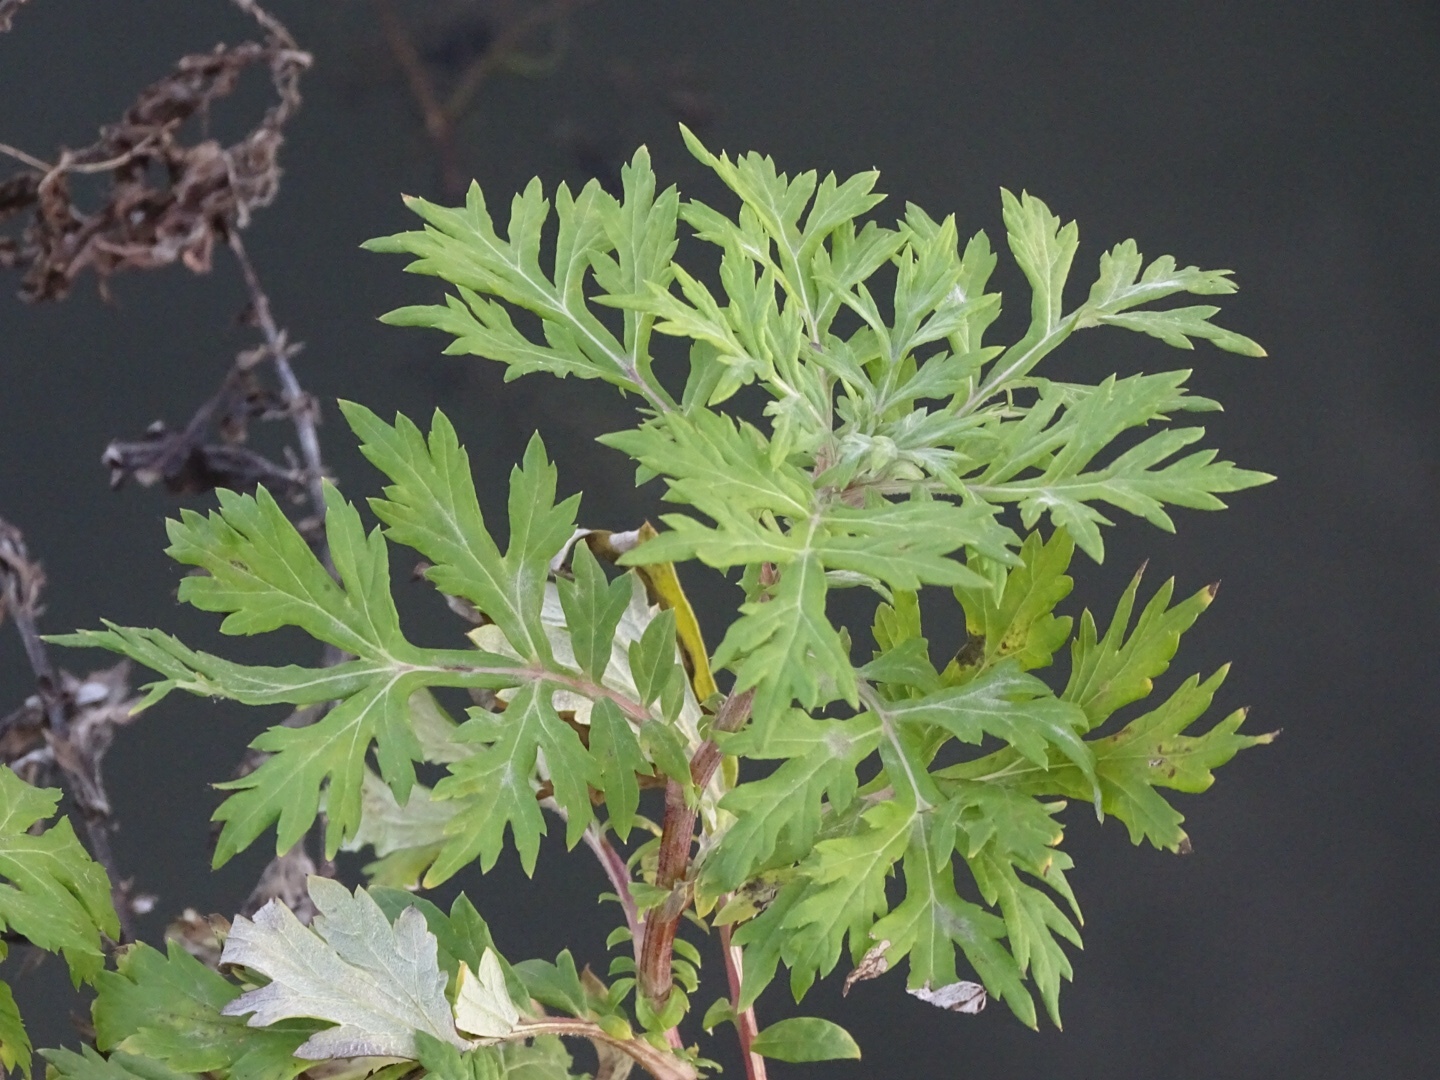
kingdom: Plantae
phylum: Tracheophyta
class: Magnoliopsida
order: Asterales
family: Asteraceae
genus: Artemisia
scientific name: Artemisia vulgaris
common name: Mugwort
